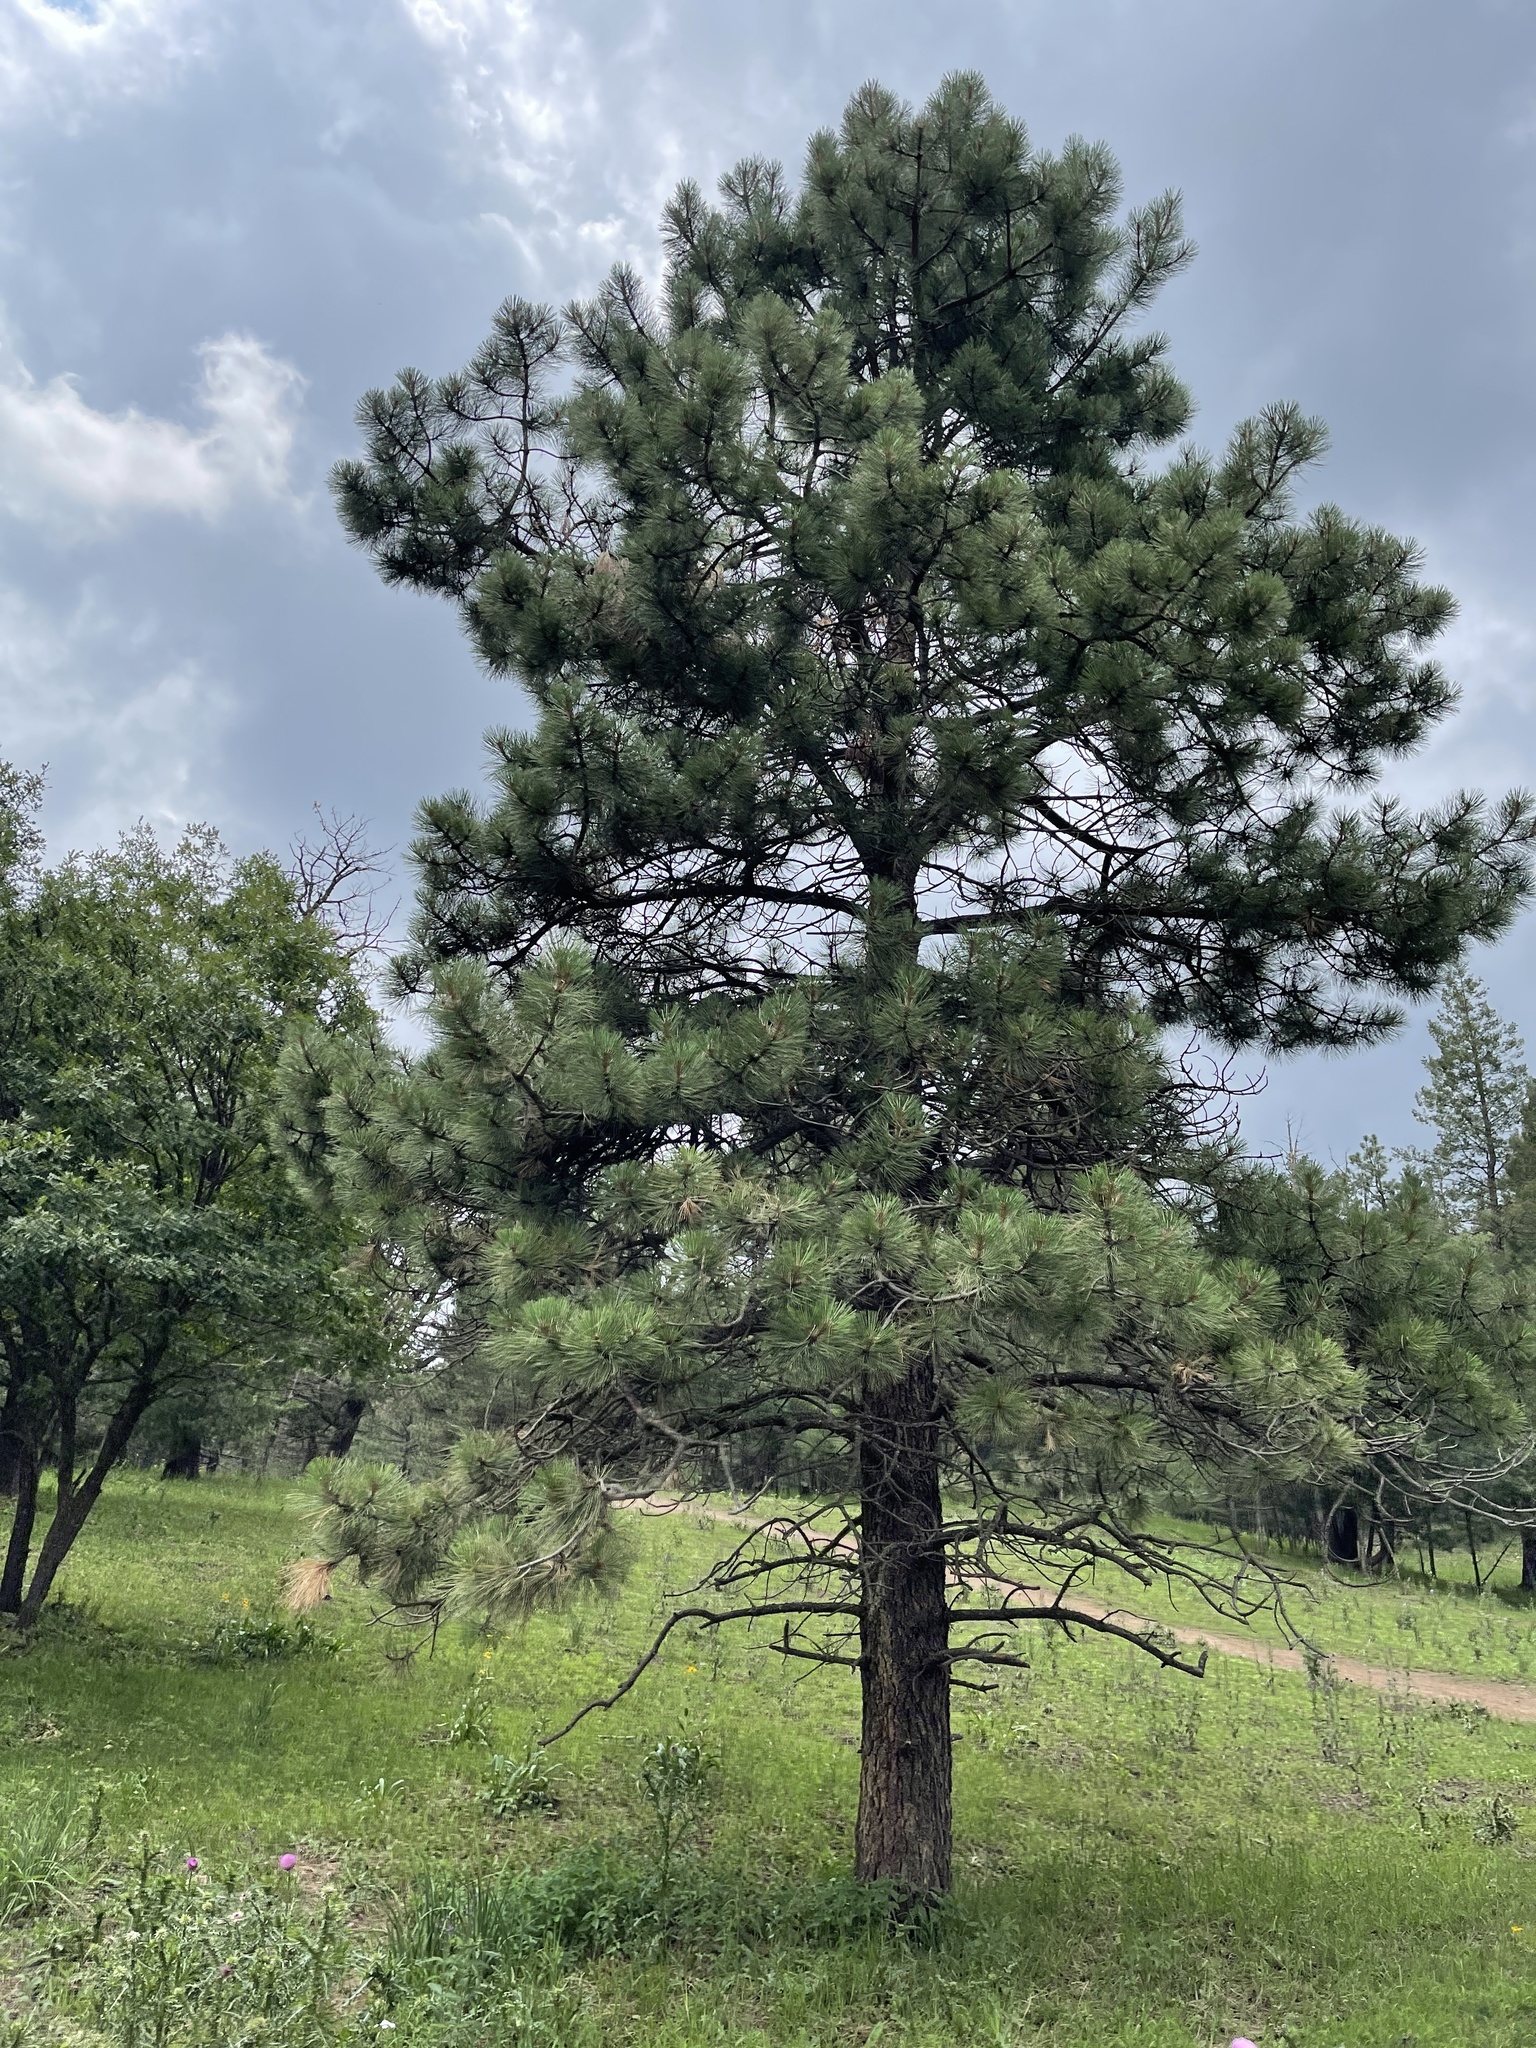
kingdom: Plantae
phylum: Tracheophyta
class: Pinopsida
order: Pinales
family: Pinaceae
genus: Pinus
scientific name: Pinus ponderosa
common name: Western yellow-pine
